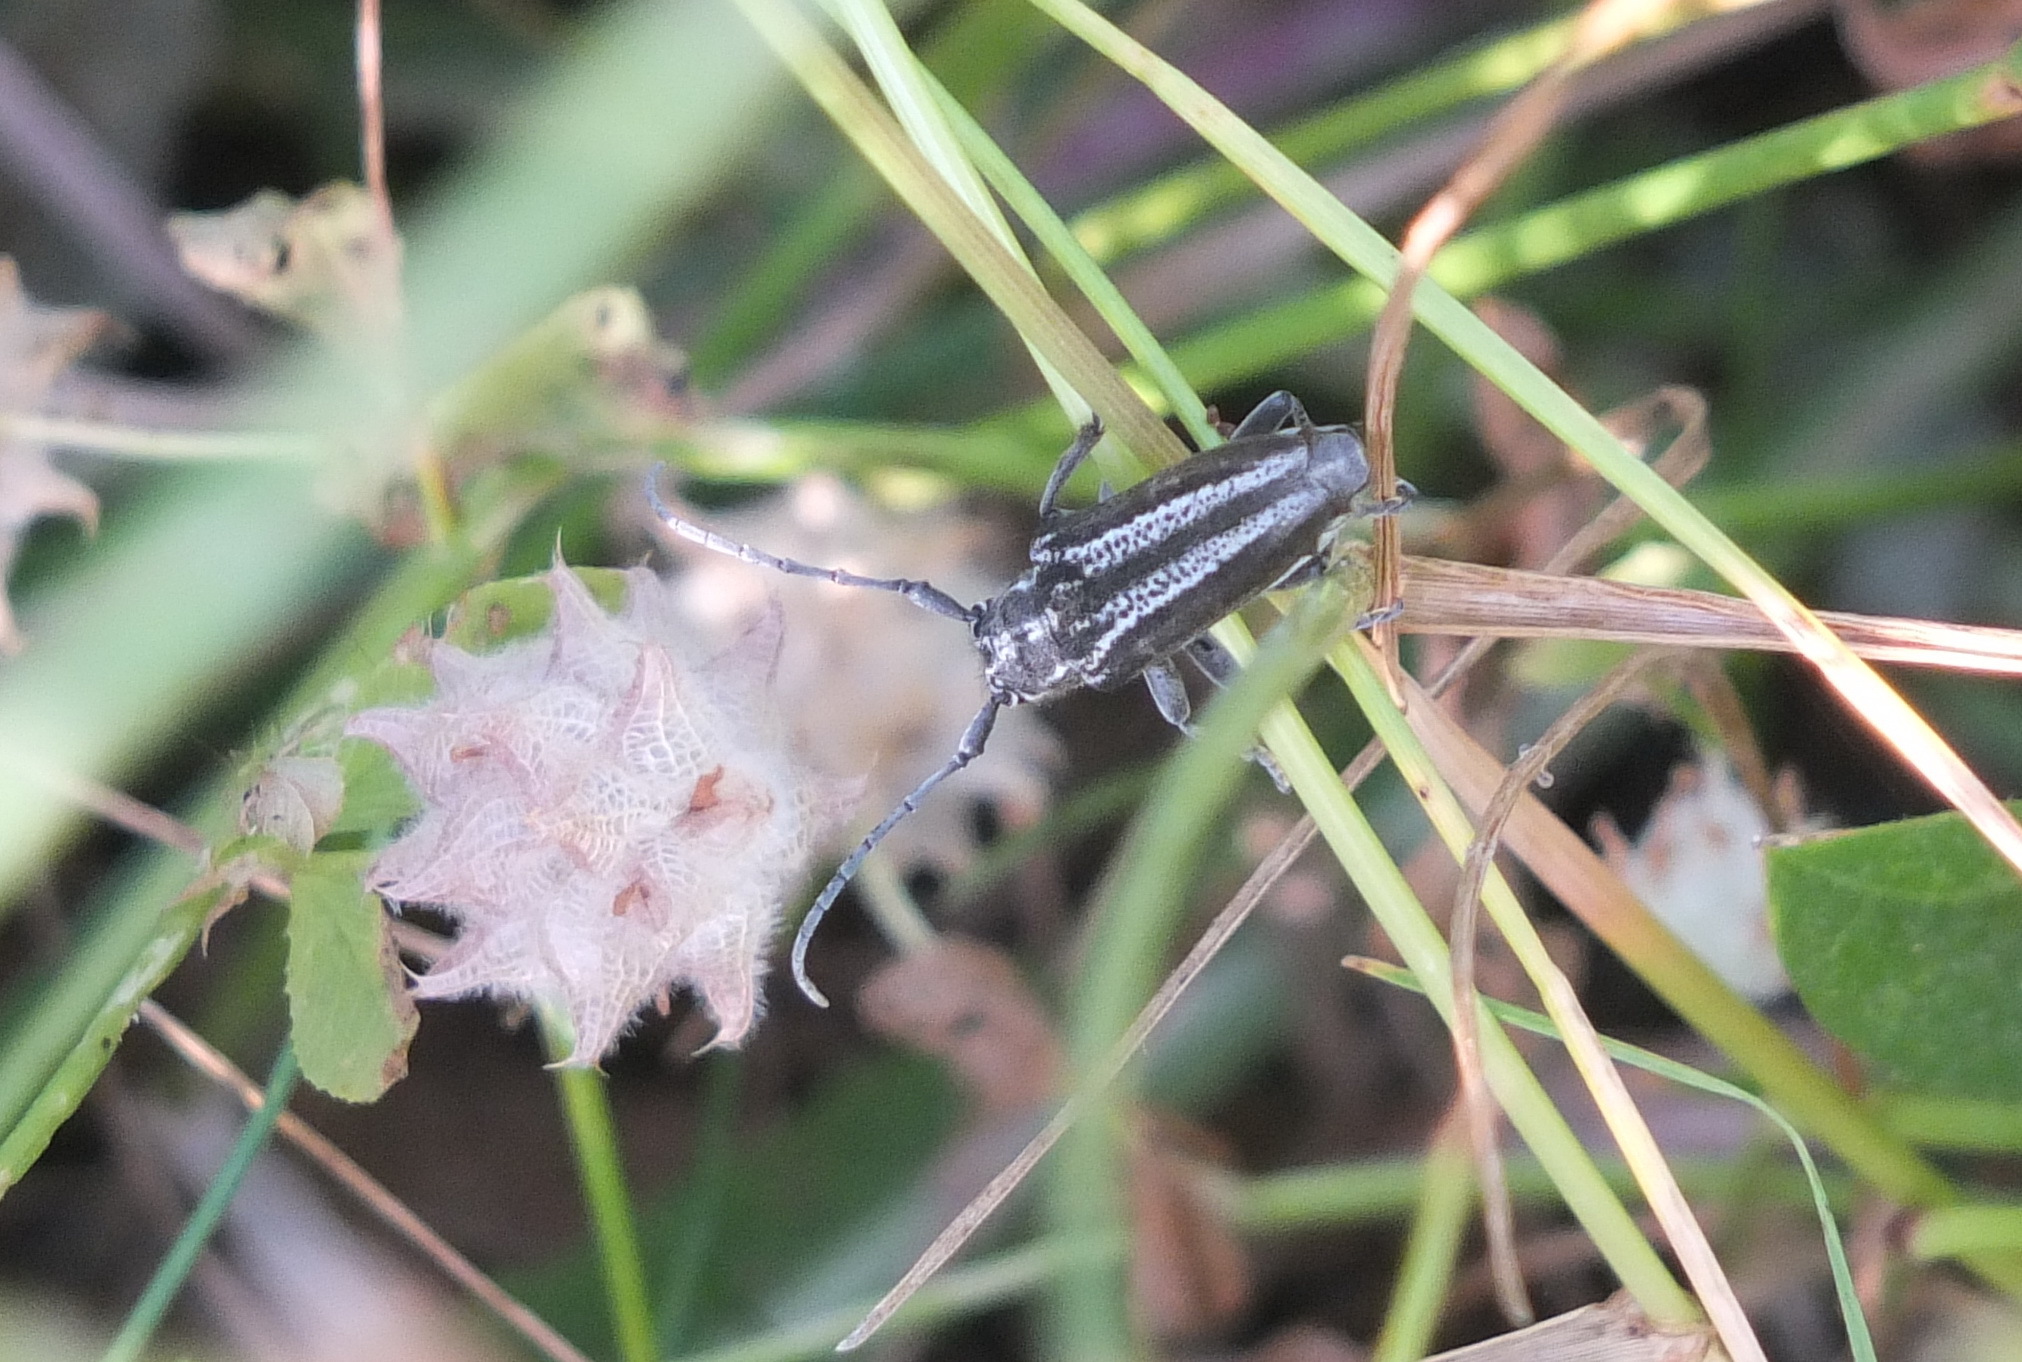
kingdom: Animalia
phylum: Arthropoda
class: Insecta
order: Coleoptera
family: Cerambycidae
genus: Conizonia
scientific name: Conizonia detrita
